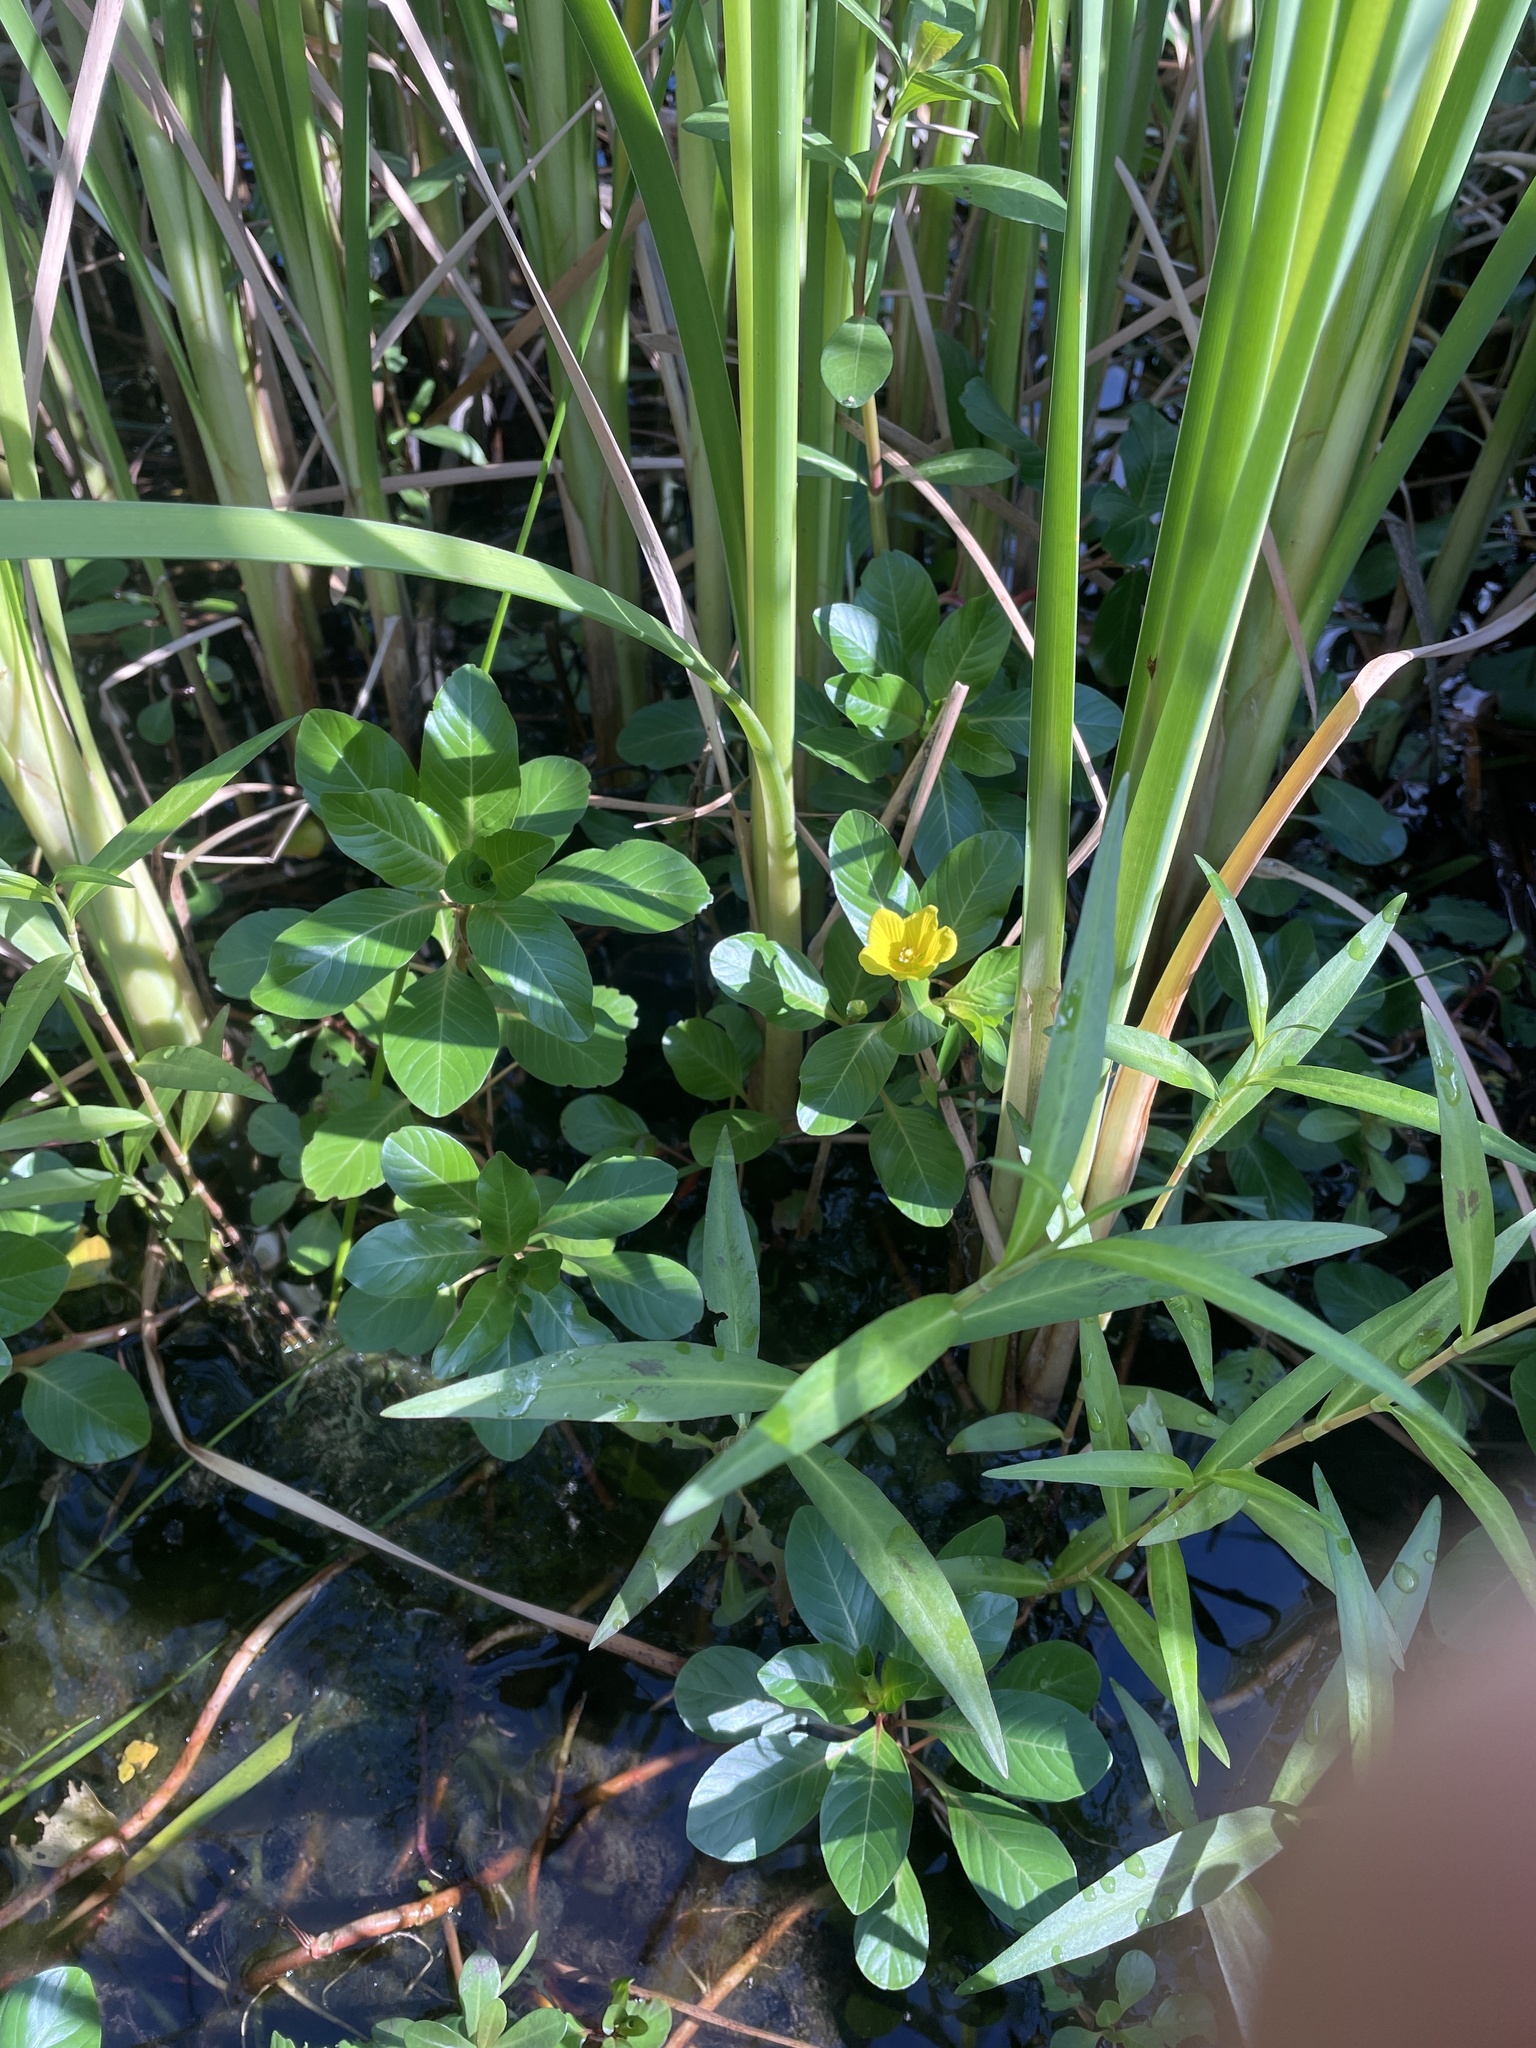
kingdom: Plantae
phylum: Tracheophyta
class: Magnoliopsida
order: Myrtales
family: Onagraceae
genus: Ludwigia
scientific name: Ludwigia peploides
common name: Floating primrose-willow
